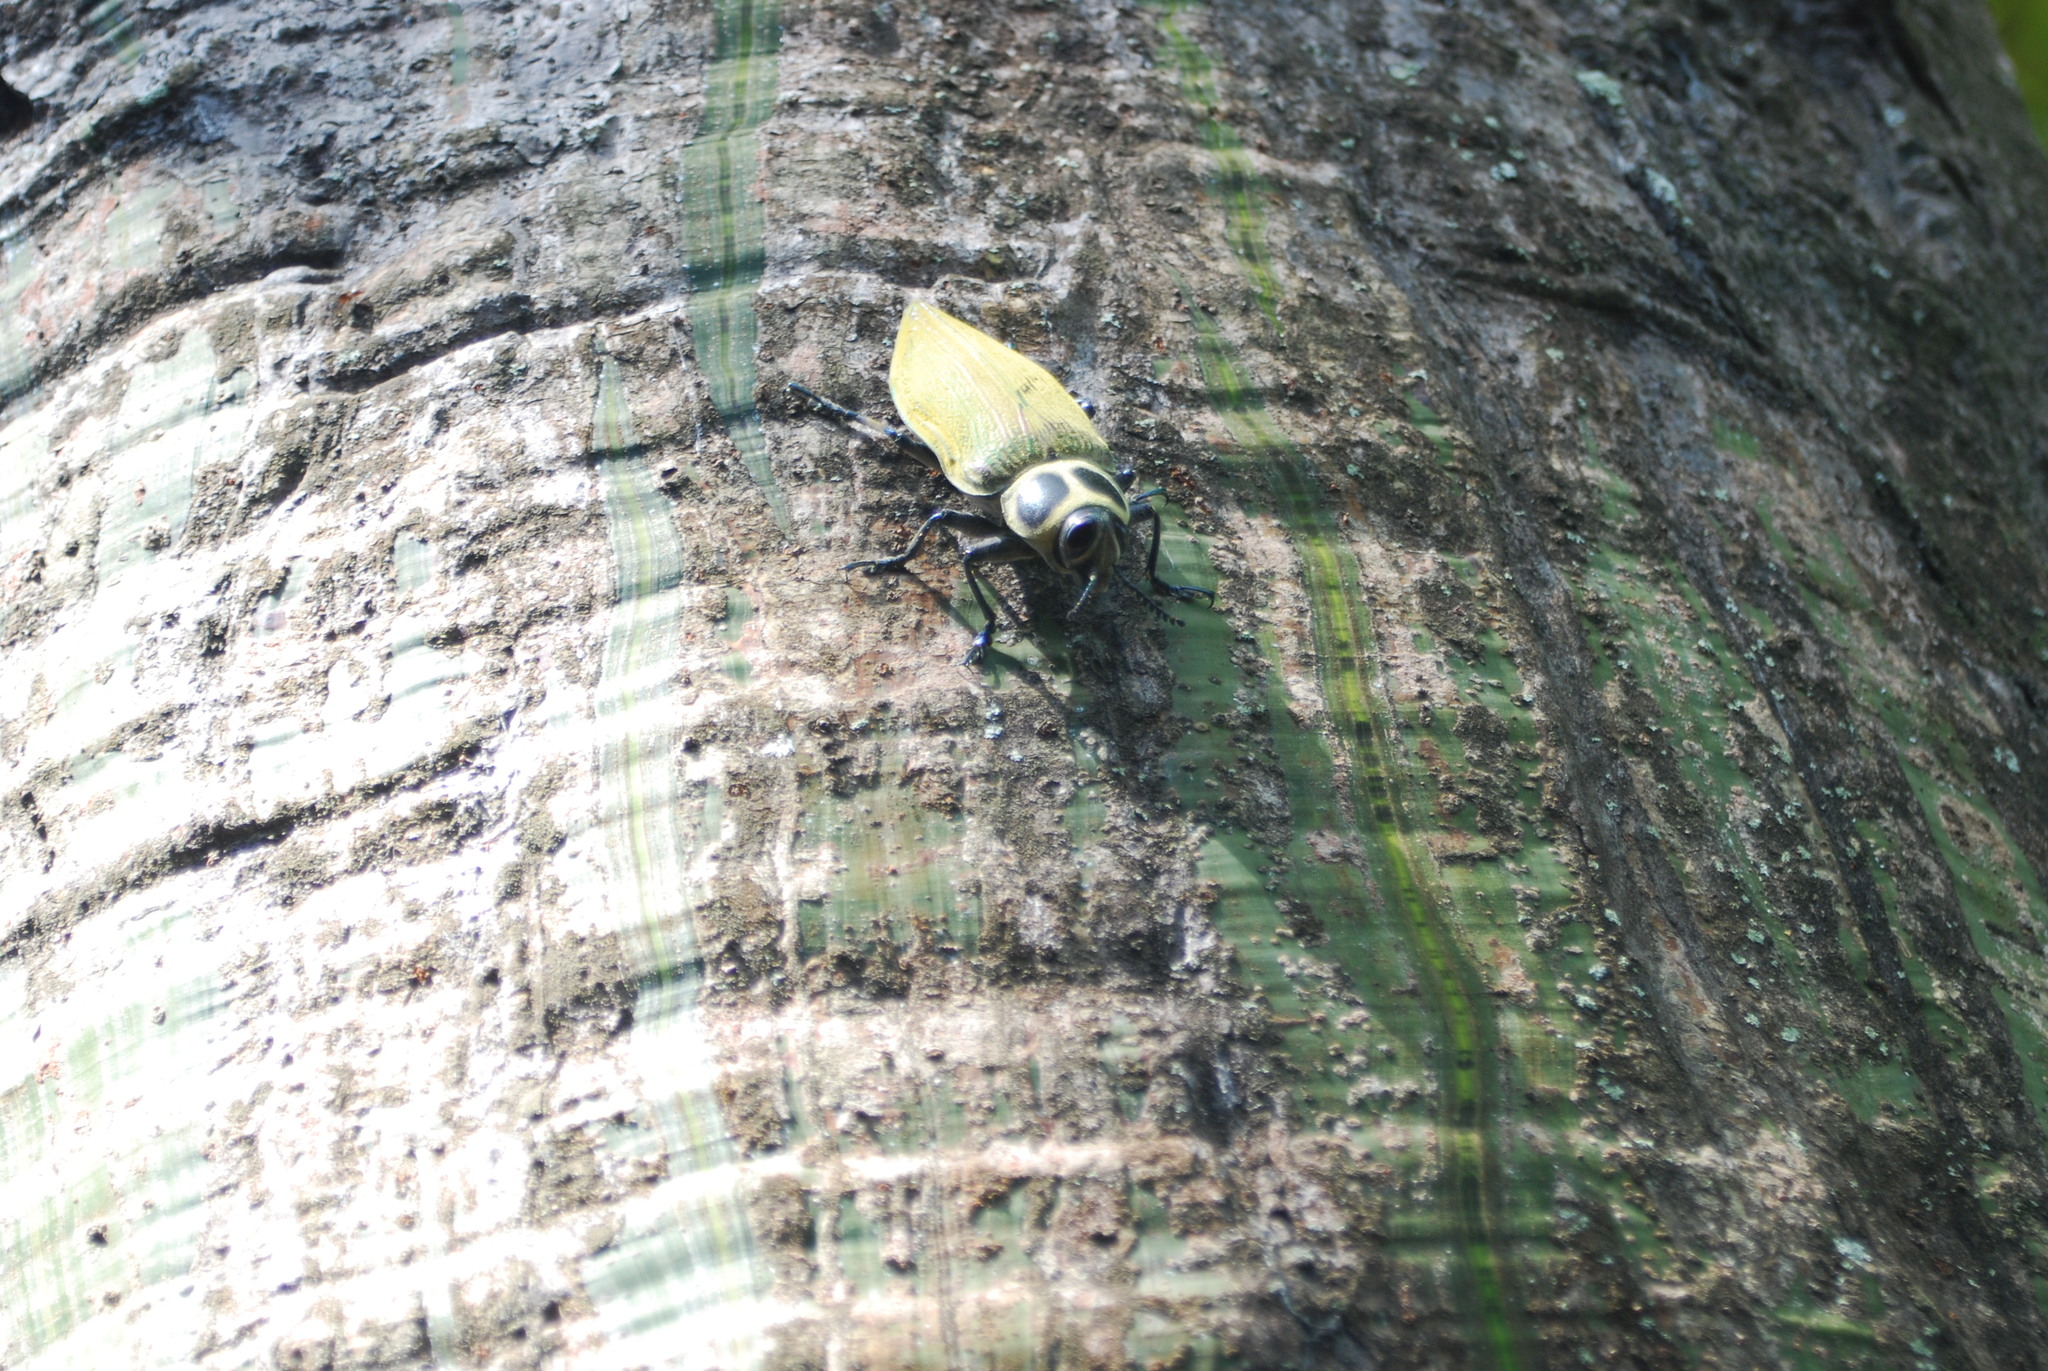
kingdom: Animalia
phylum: Arthropoda
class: Insecta
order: Coleoptera
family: Buprestidae
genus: Euchroma
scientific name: Euchroma giganteum
